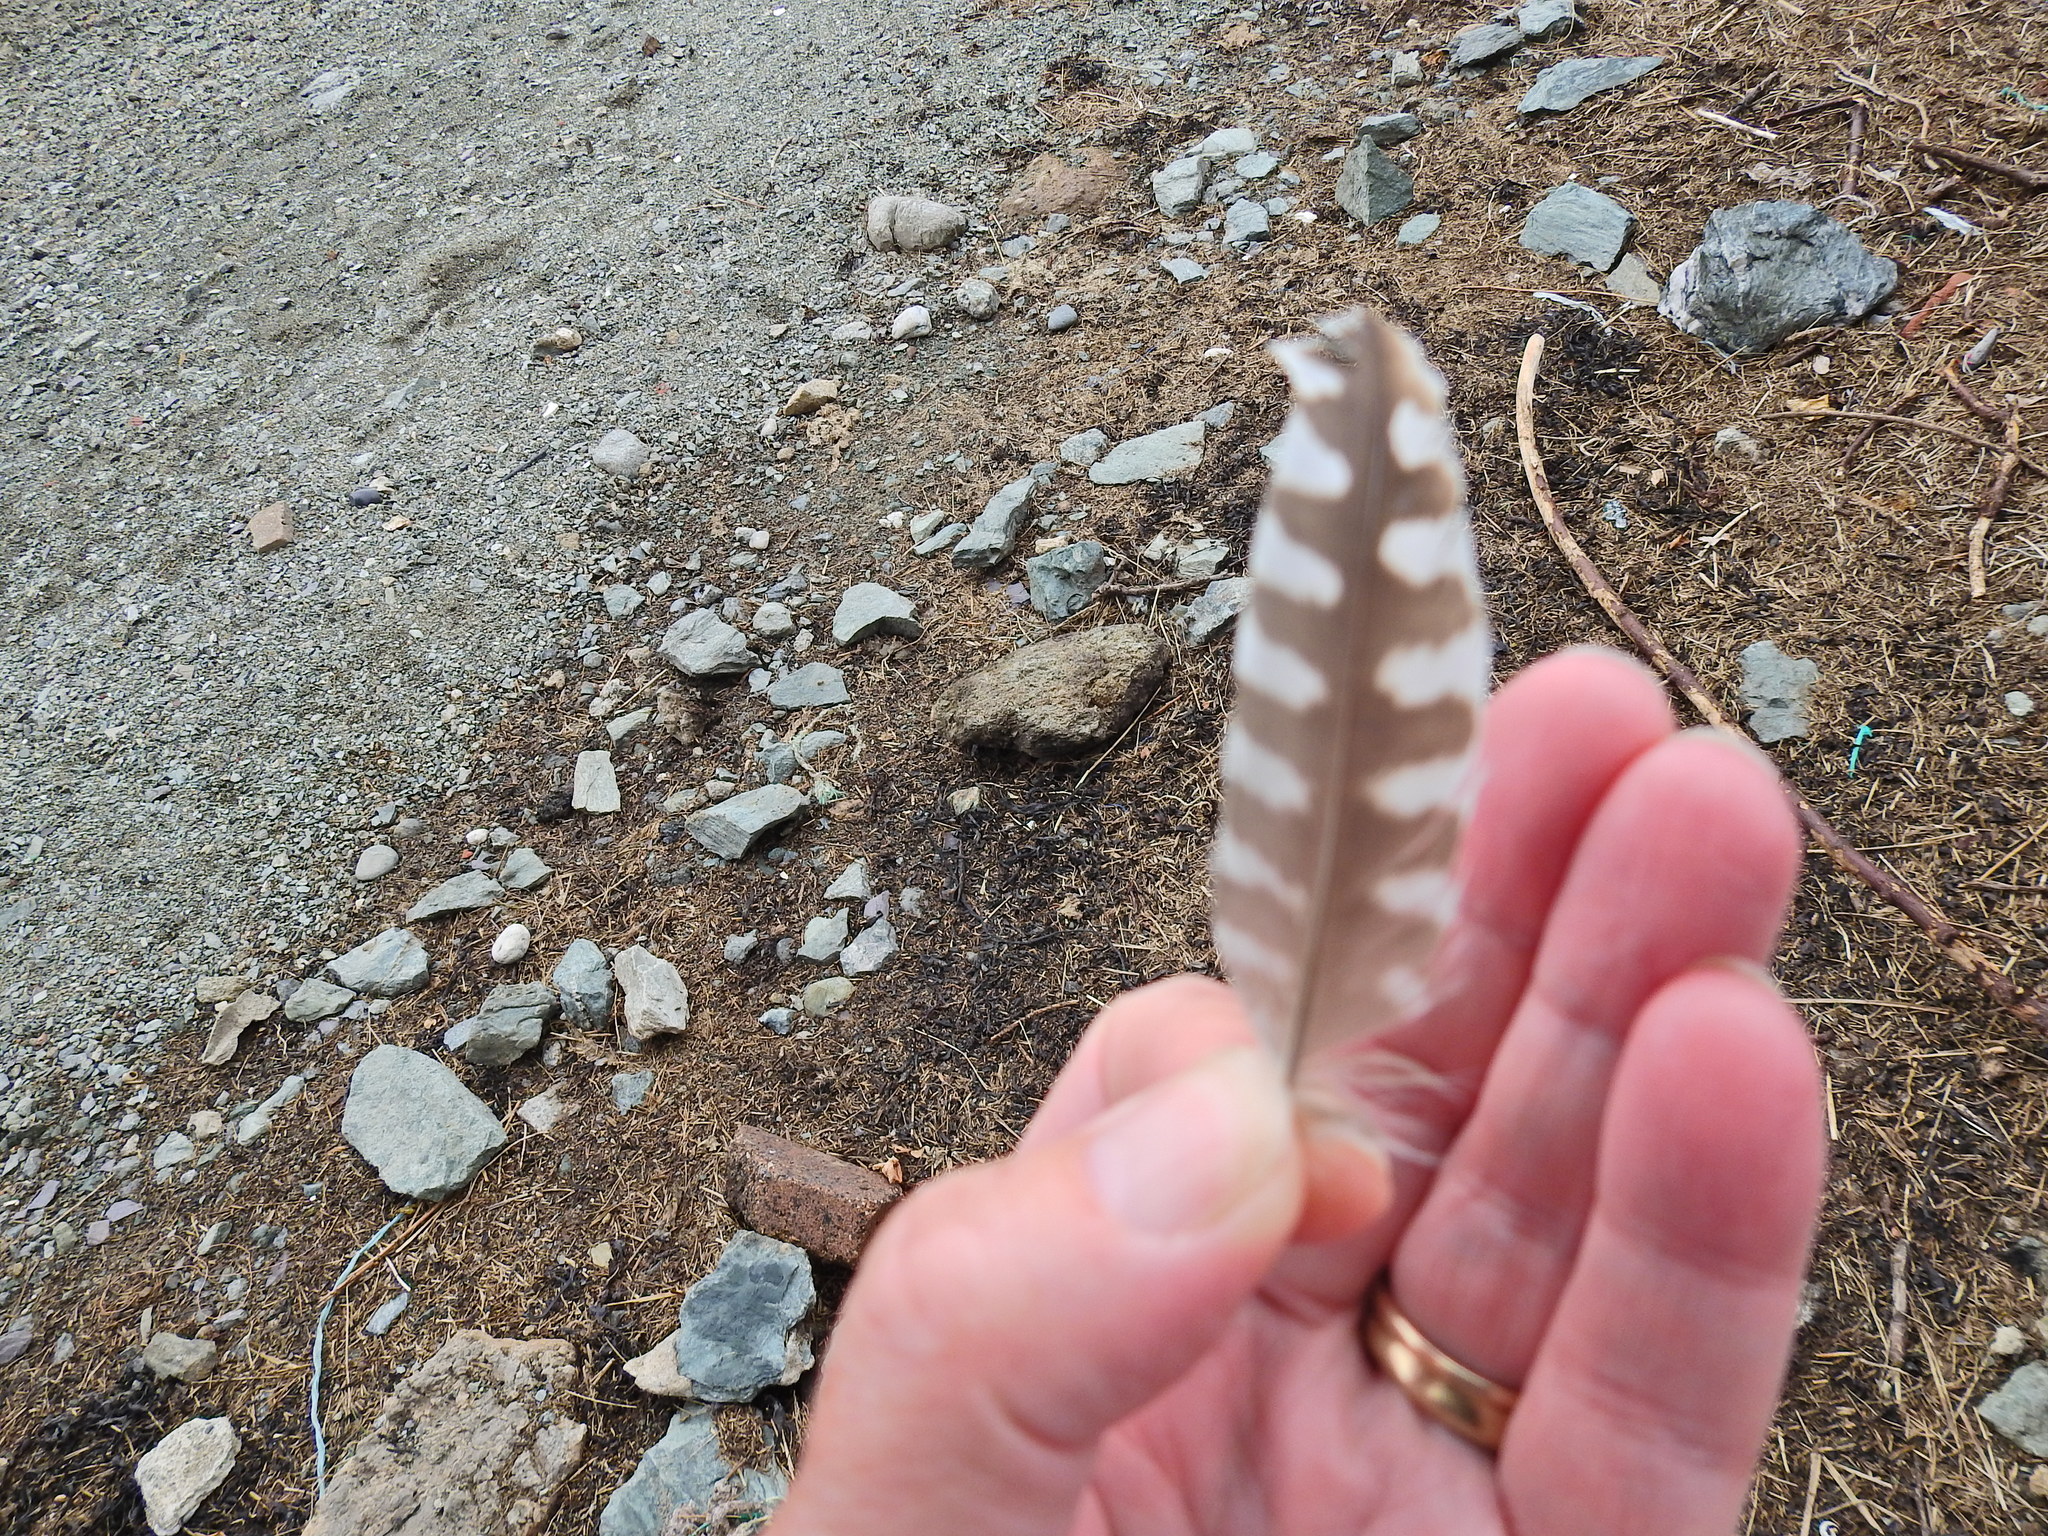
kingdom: Animalia
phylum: Chordata
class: Aves
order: Charadriiformes
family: Scolopacidae
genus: Numenius
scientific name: Numenius arquata
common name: Eurasian curlew
